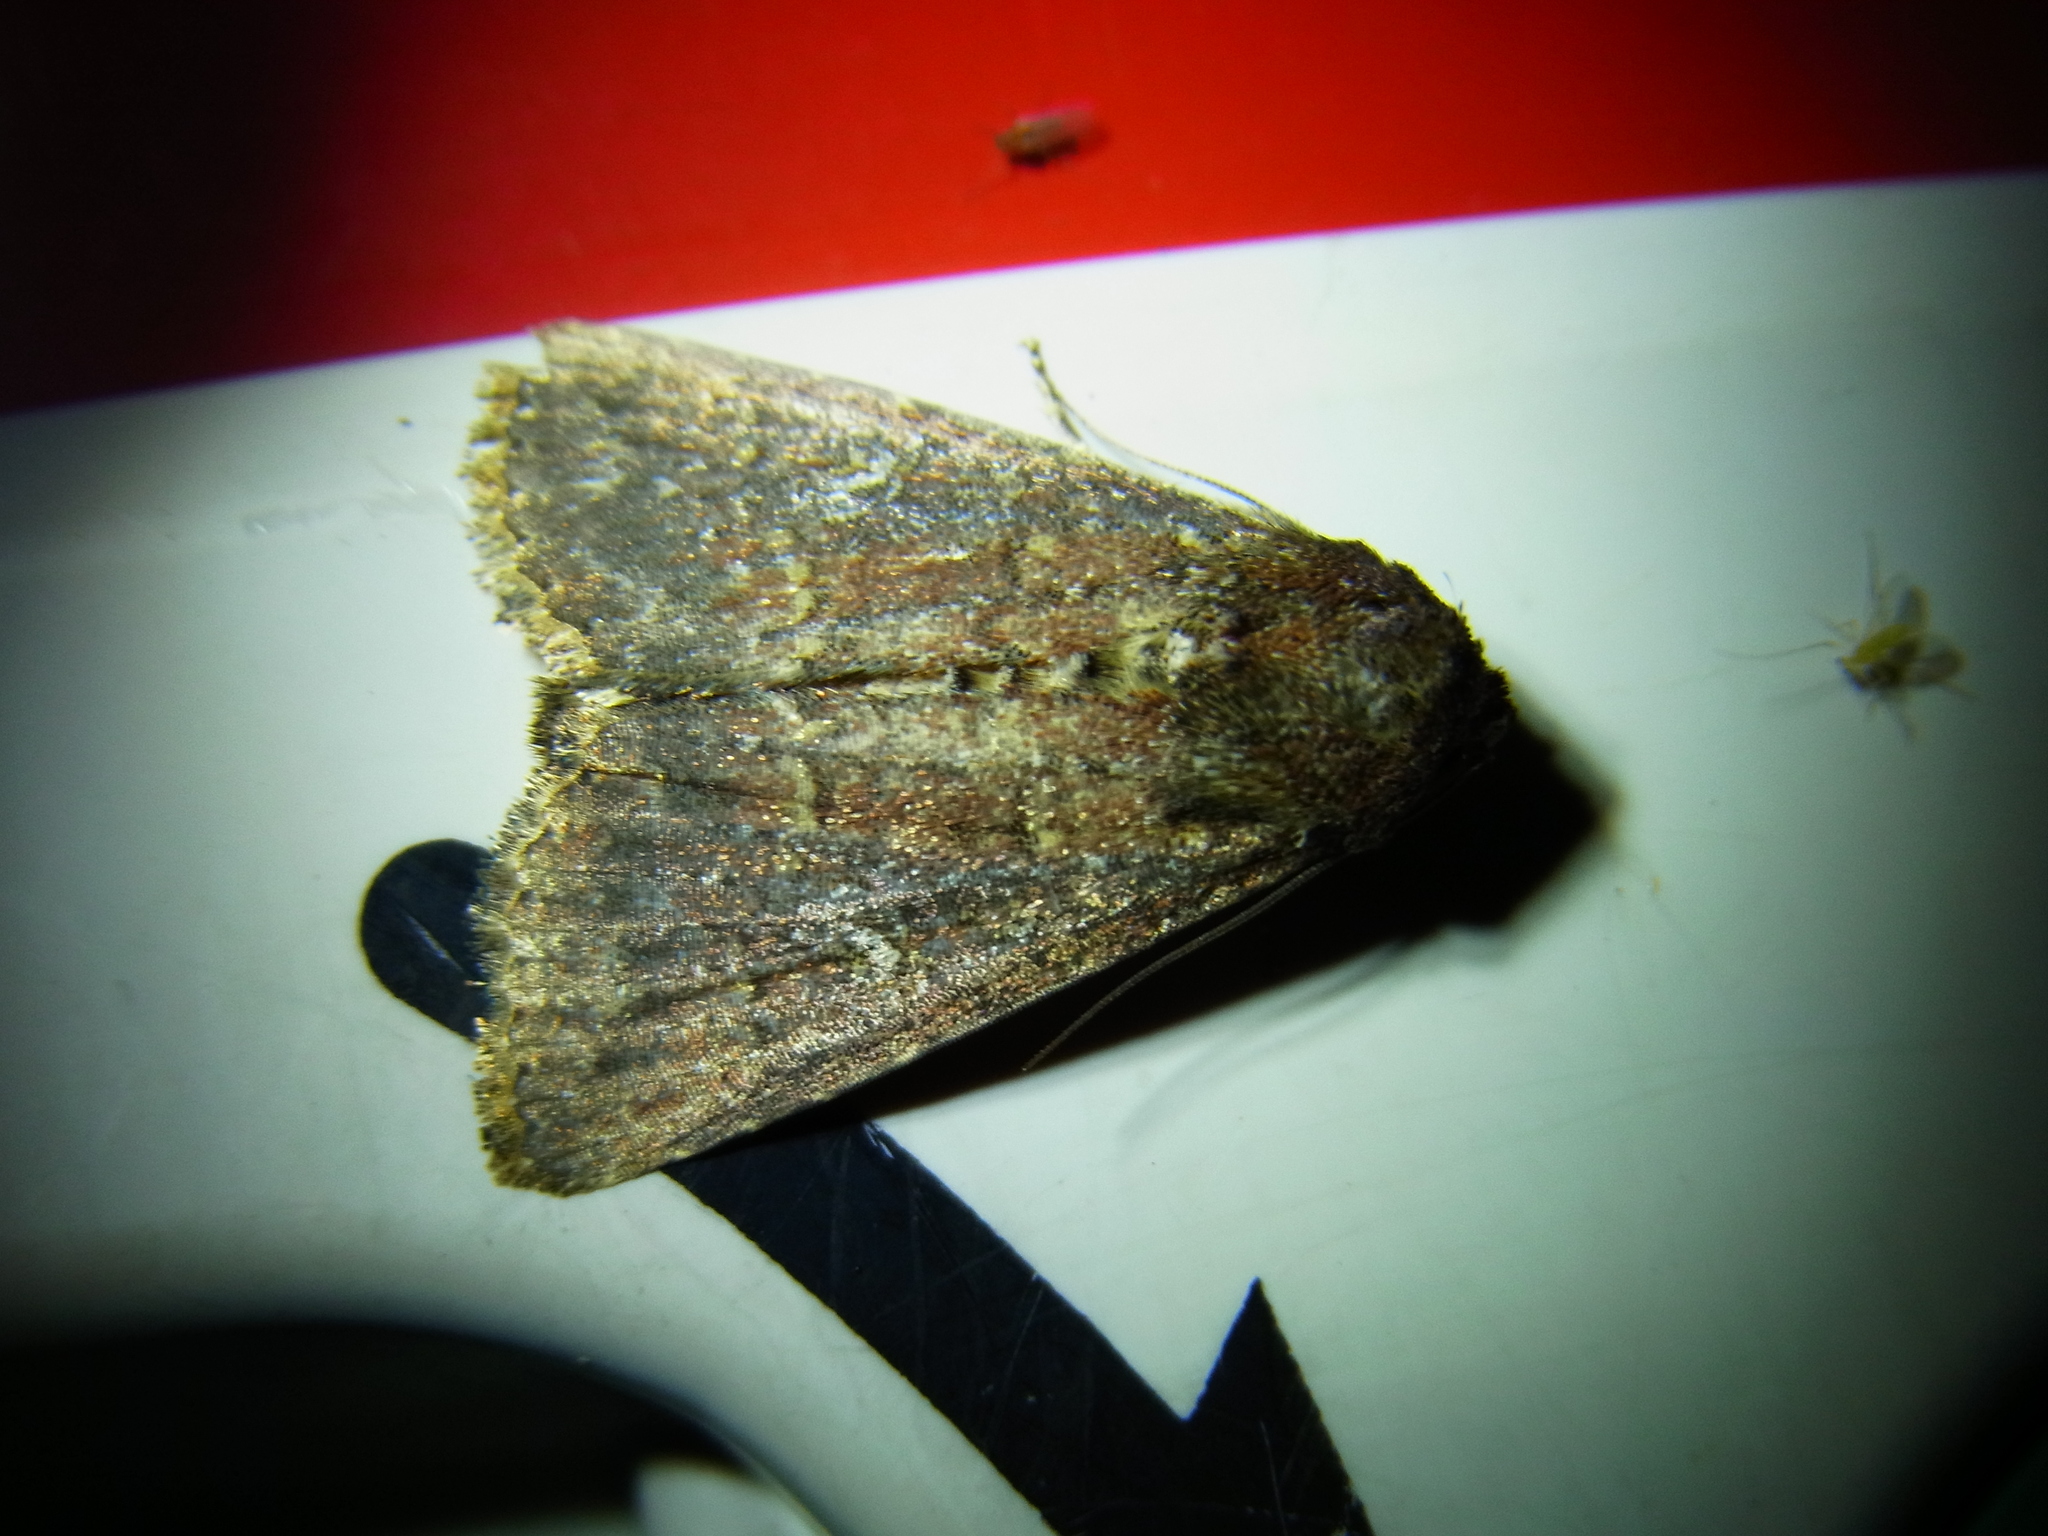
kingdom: Animalia
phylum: Arthropoda
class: Insecta
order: Lepidoptera
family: Noctuidae
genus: Condica
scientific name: Condica illecta
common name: Cutworm
